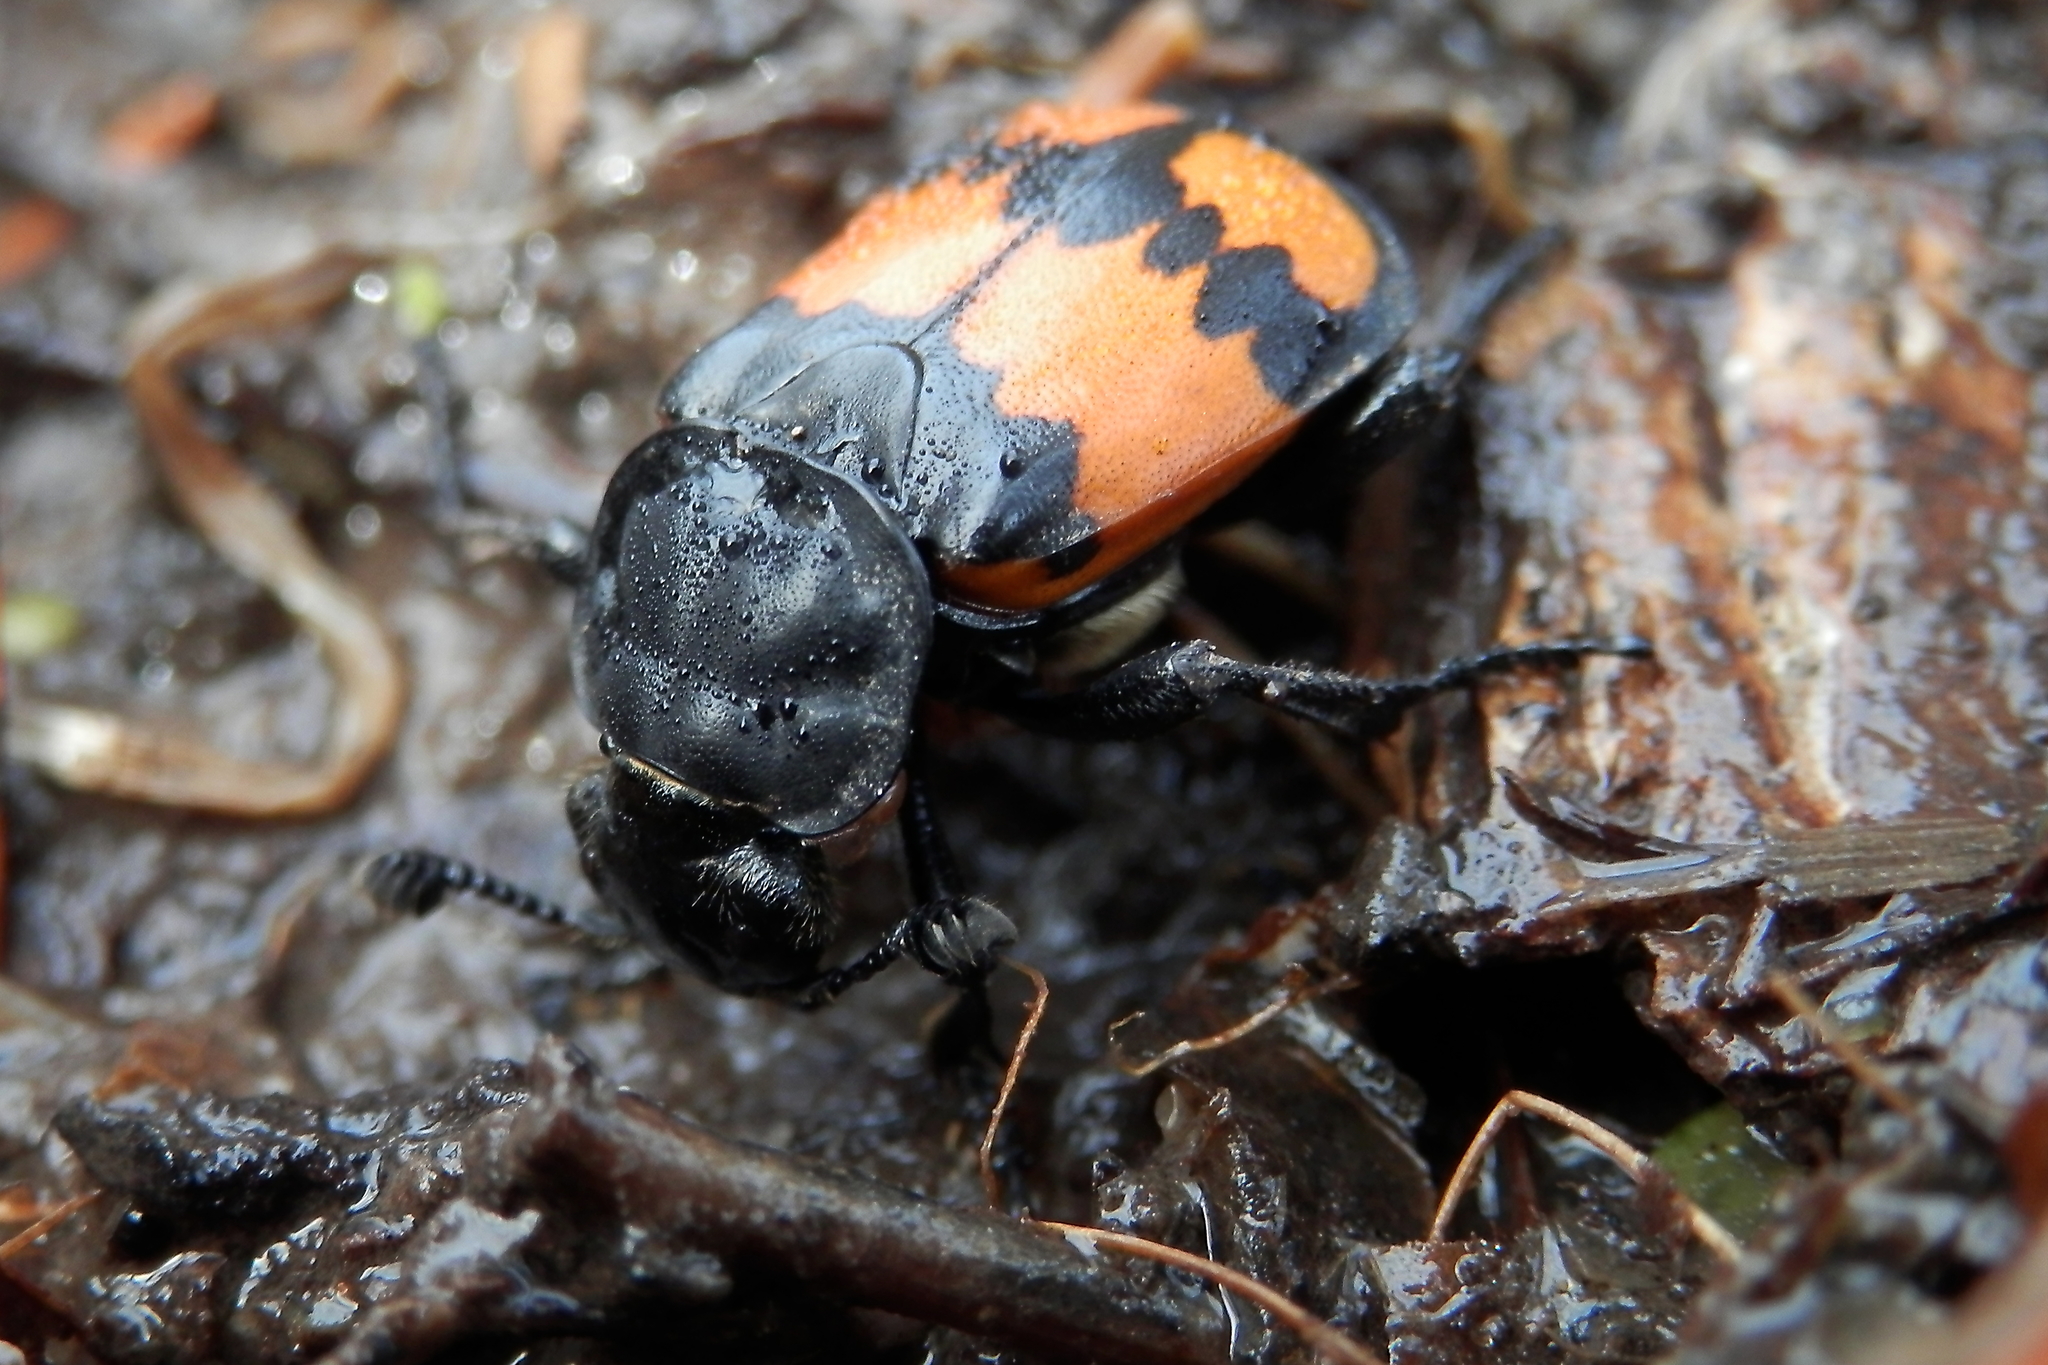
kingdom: Animalia
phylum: Arthropoda
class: Insecta
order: Coleoptera
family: Staphylinidae
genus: Nicrophorus
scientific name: Nicrophorus hebes
